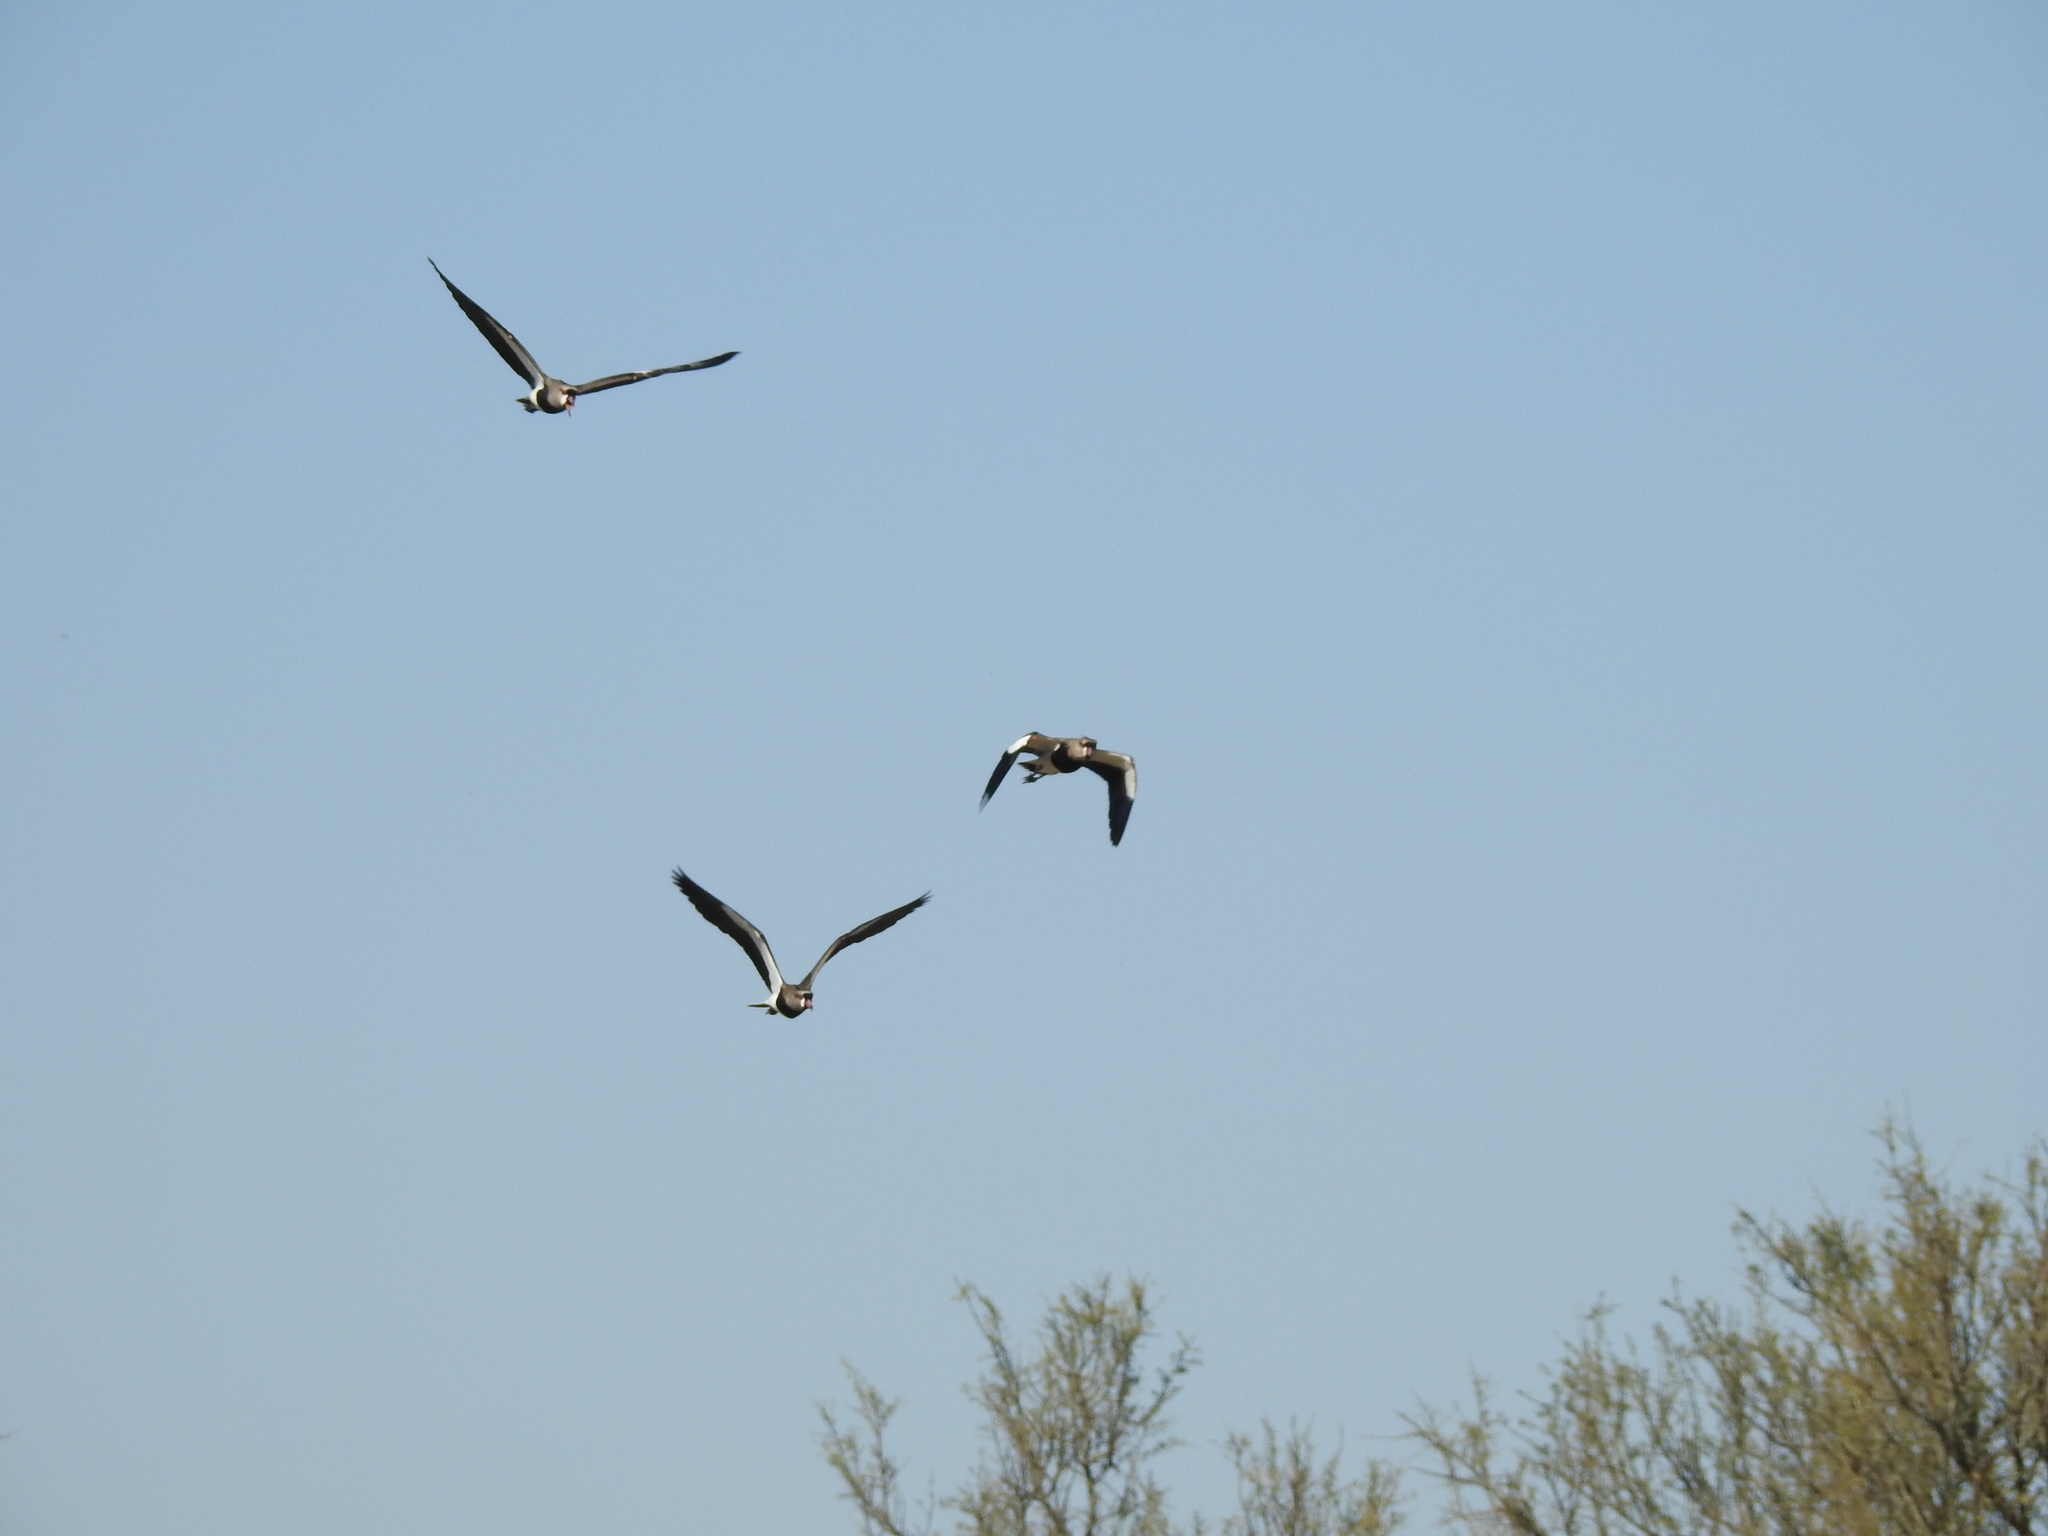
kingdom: Animalia
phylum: Chordata
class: Aves
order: Charadriiformes
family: Charadriidae
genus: Vanellus
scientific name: Vanellus chilensis
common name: Southern lapwing
